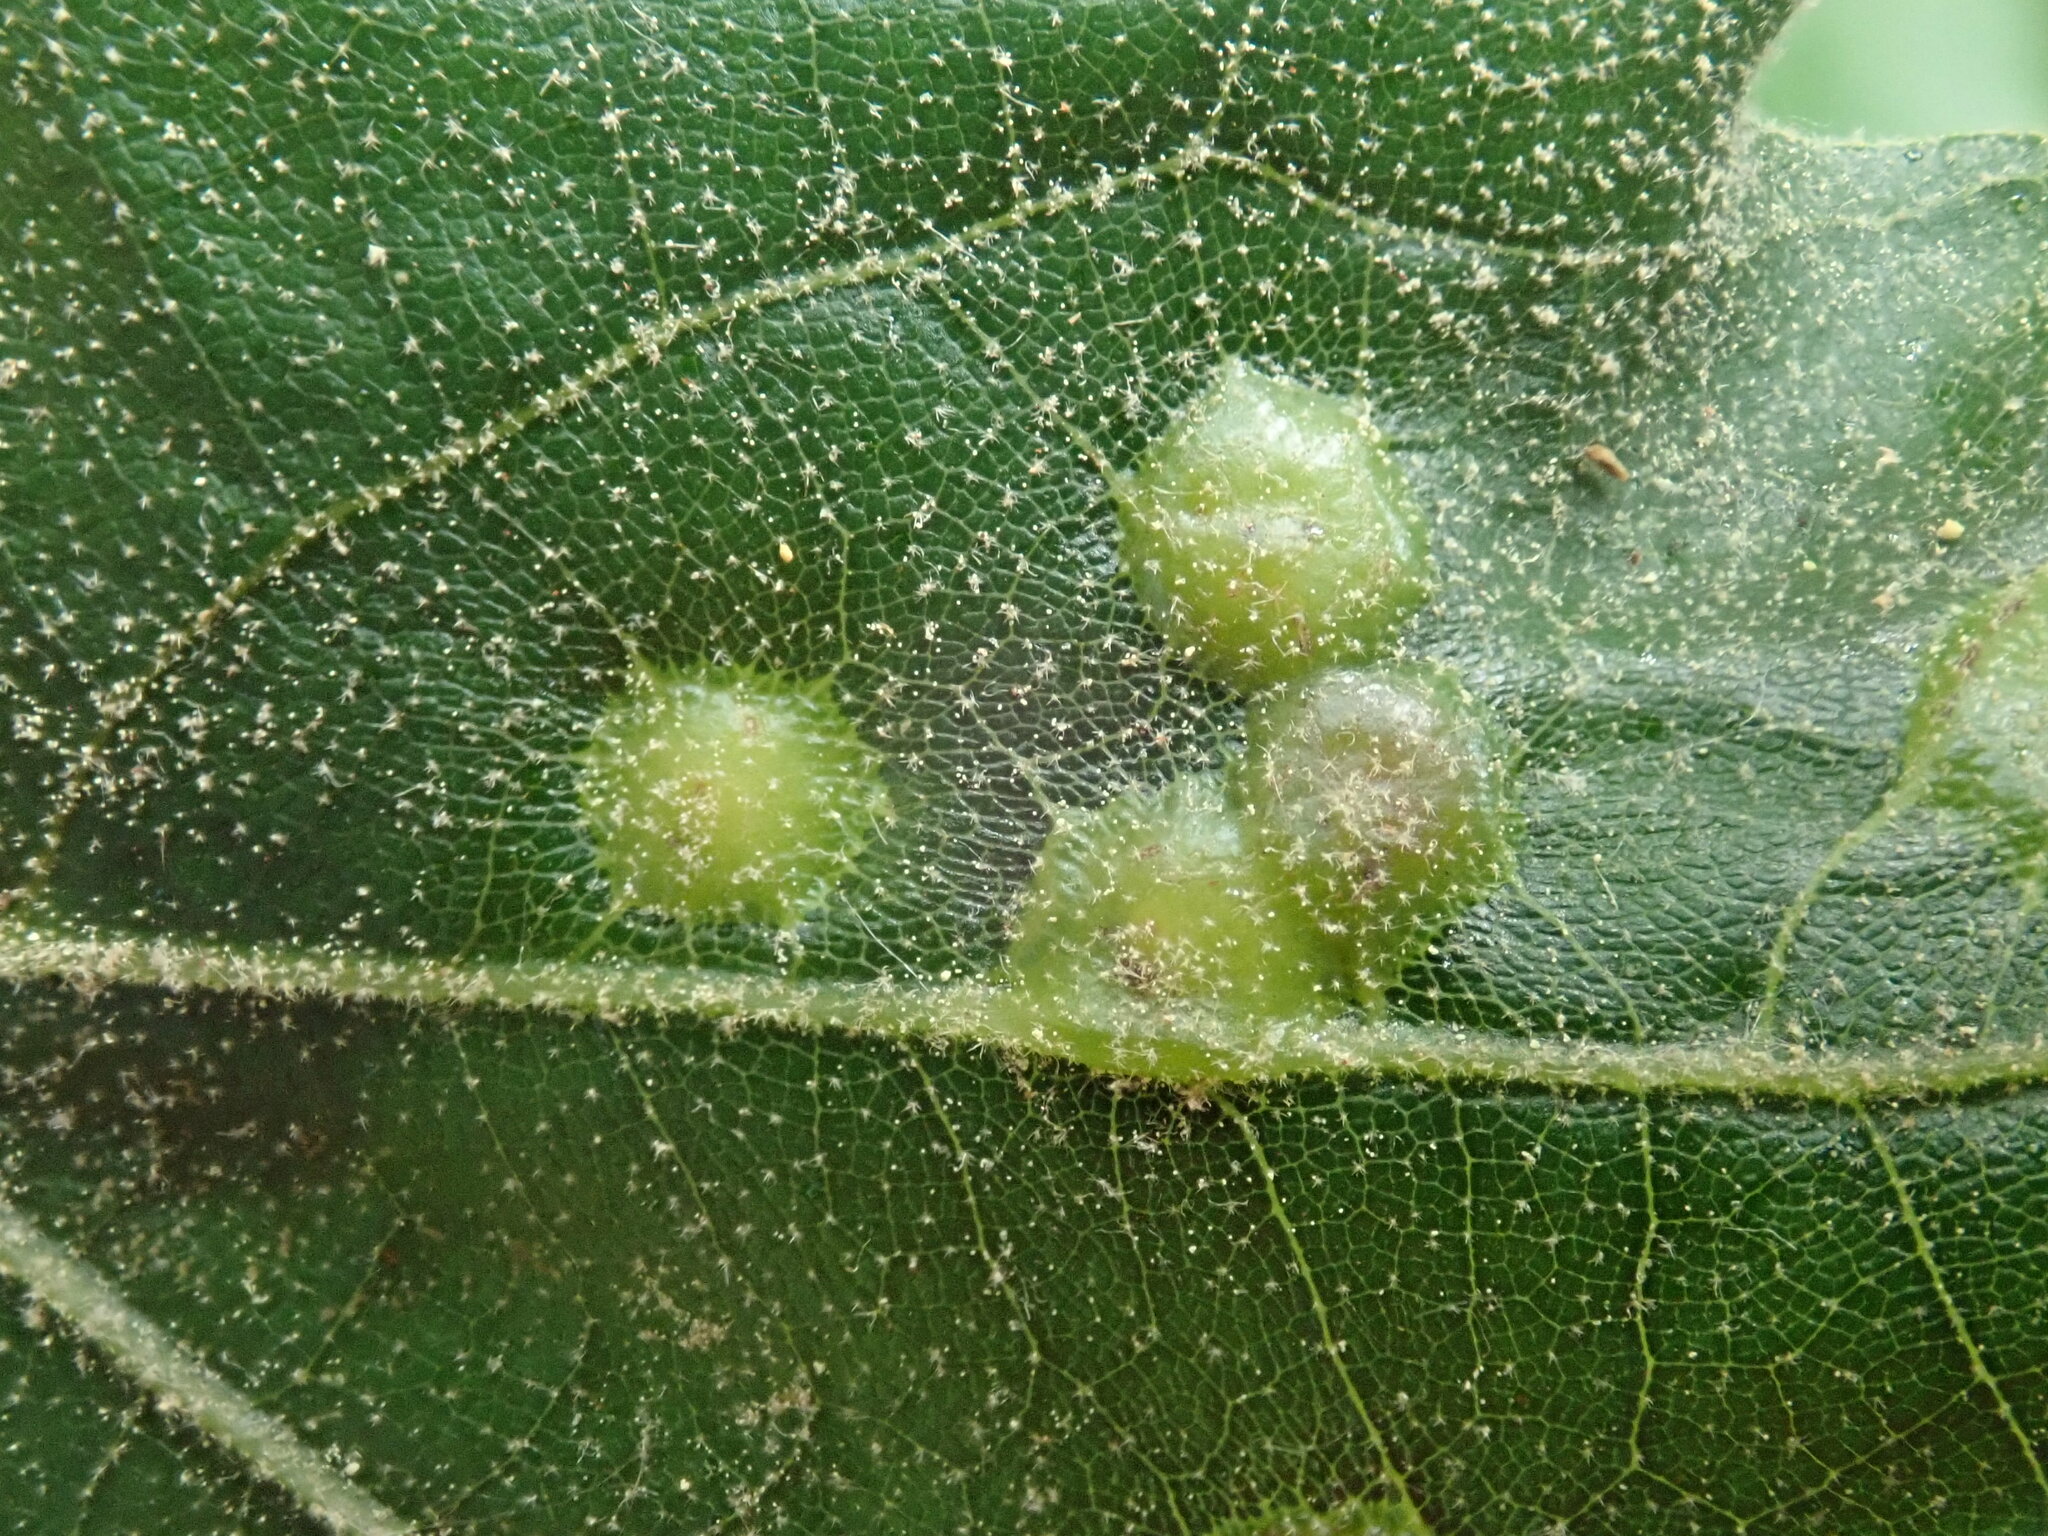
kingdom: Animalia
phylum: Arthropoda
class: Insecta
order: Diptera
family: Cecidomyiidae
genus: Polystepha
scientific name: Polystepha pilulae
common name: Oak leaf gall midge
